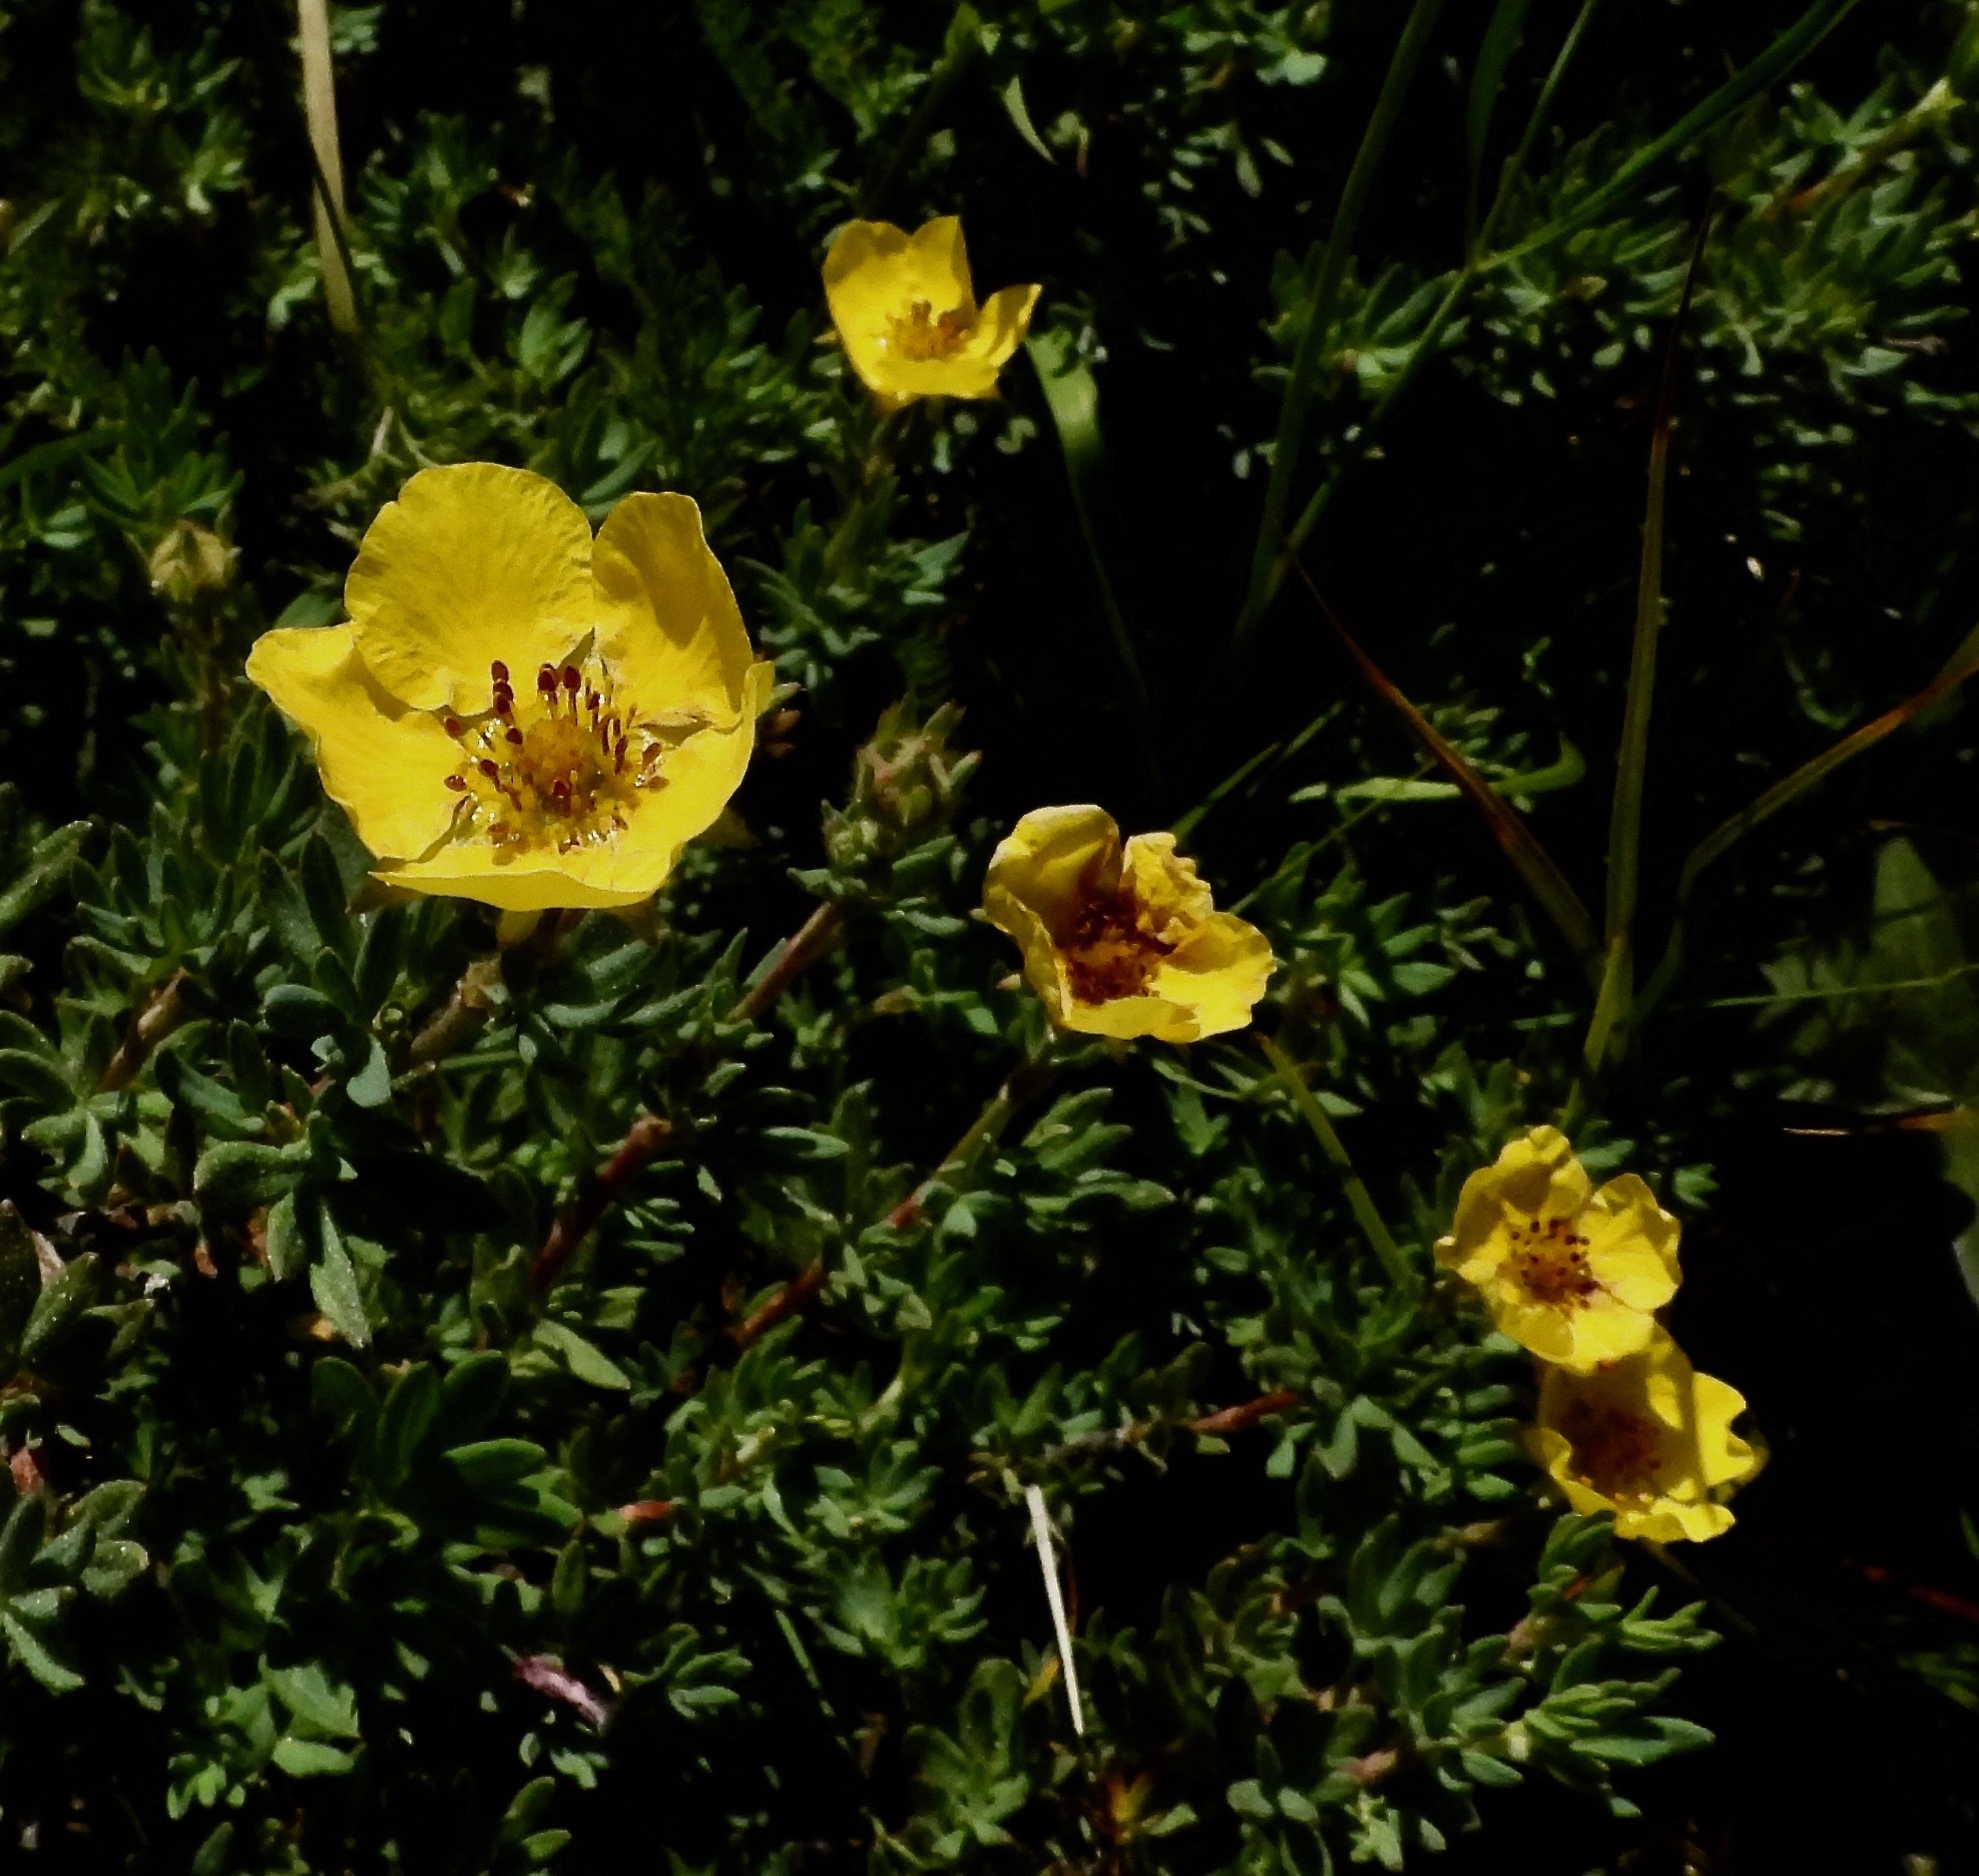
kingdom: Plantae
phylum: Tracheophyta
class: Magnoliopsida
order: Rosales
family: Rosaceae
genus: Dasiphora
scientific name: Dasiphora fruticosa
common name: Shrubby cinquefoil
